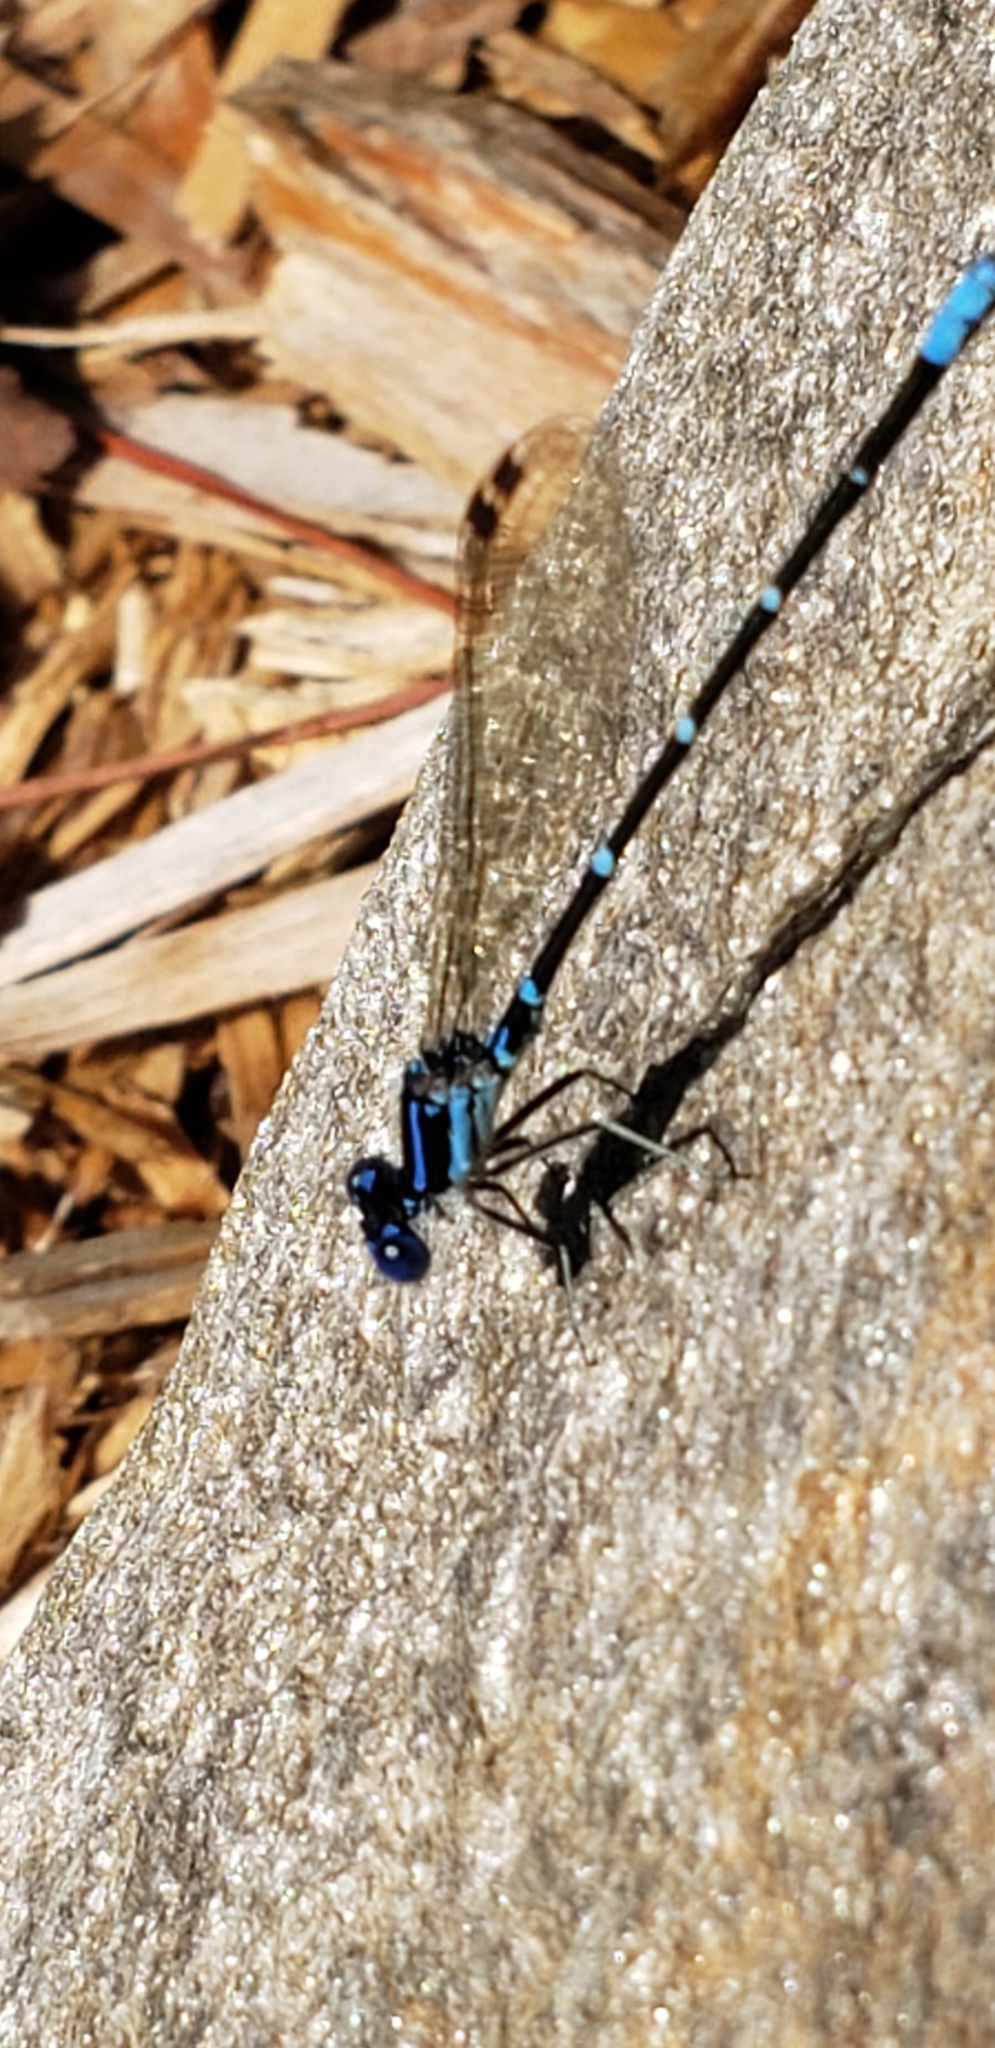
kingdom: Animalia
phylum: Arthropoda
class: Insecta
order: Odonata
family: Coenagrionidae
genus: Argia
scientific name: Argia sedula
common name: Blue-ringed dancer
